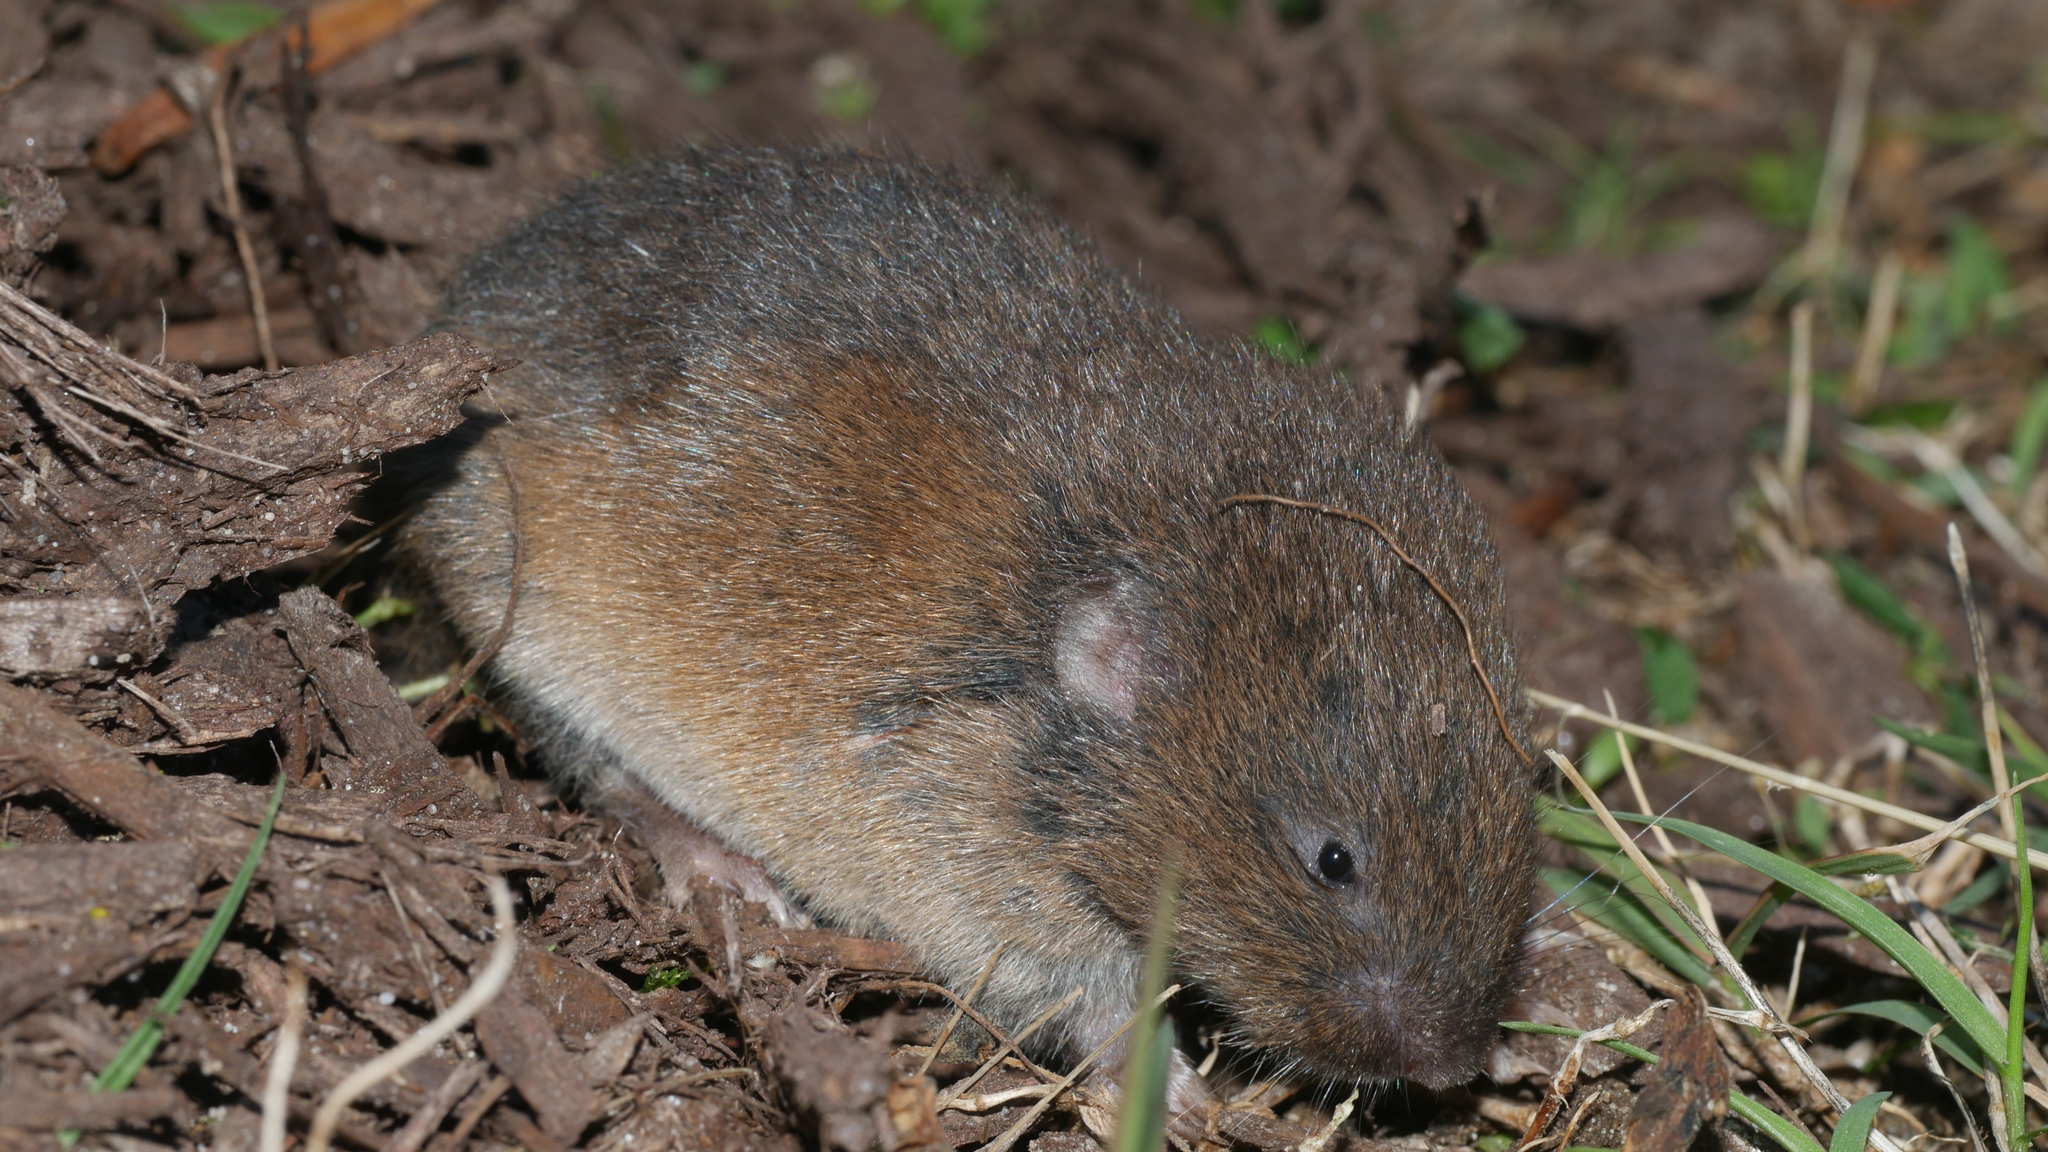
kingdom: Animalia
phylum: Chordata
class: Mammalia
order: Rodentia
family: Cricetidae
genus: Microtus
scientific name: Microtus pinetorum
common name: Woodland vole
